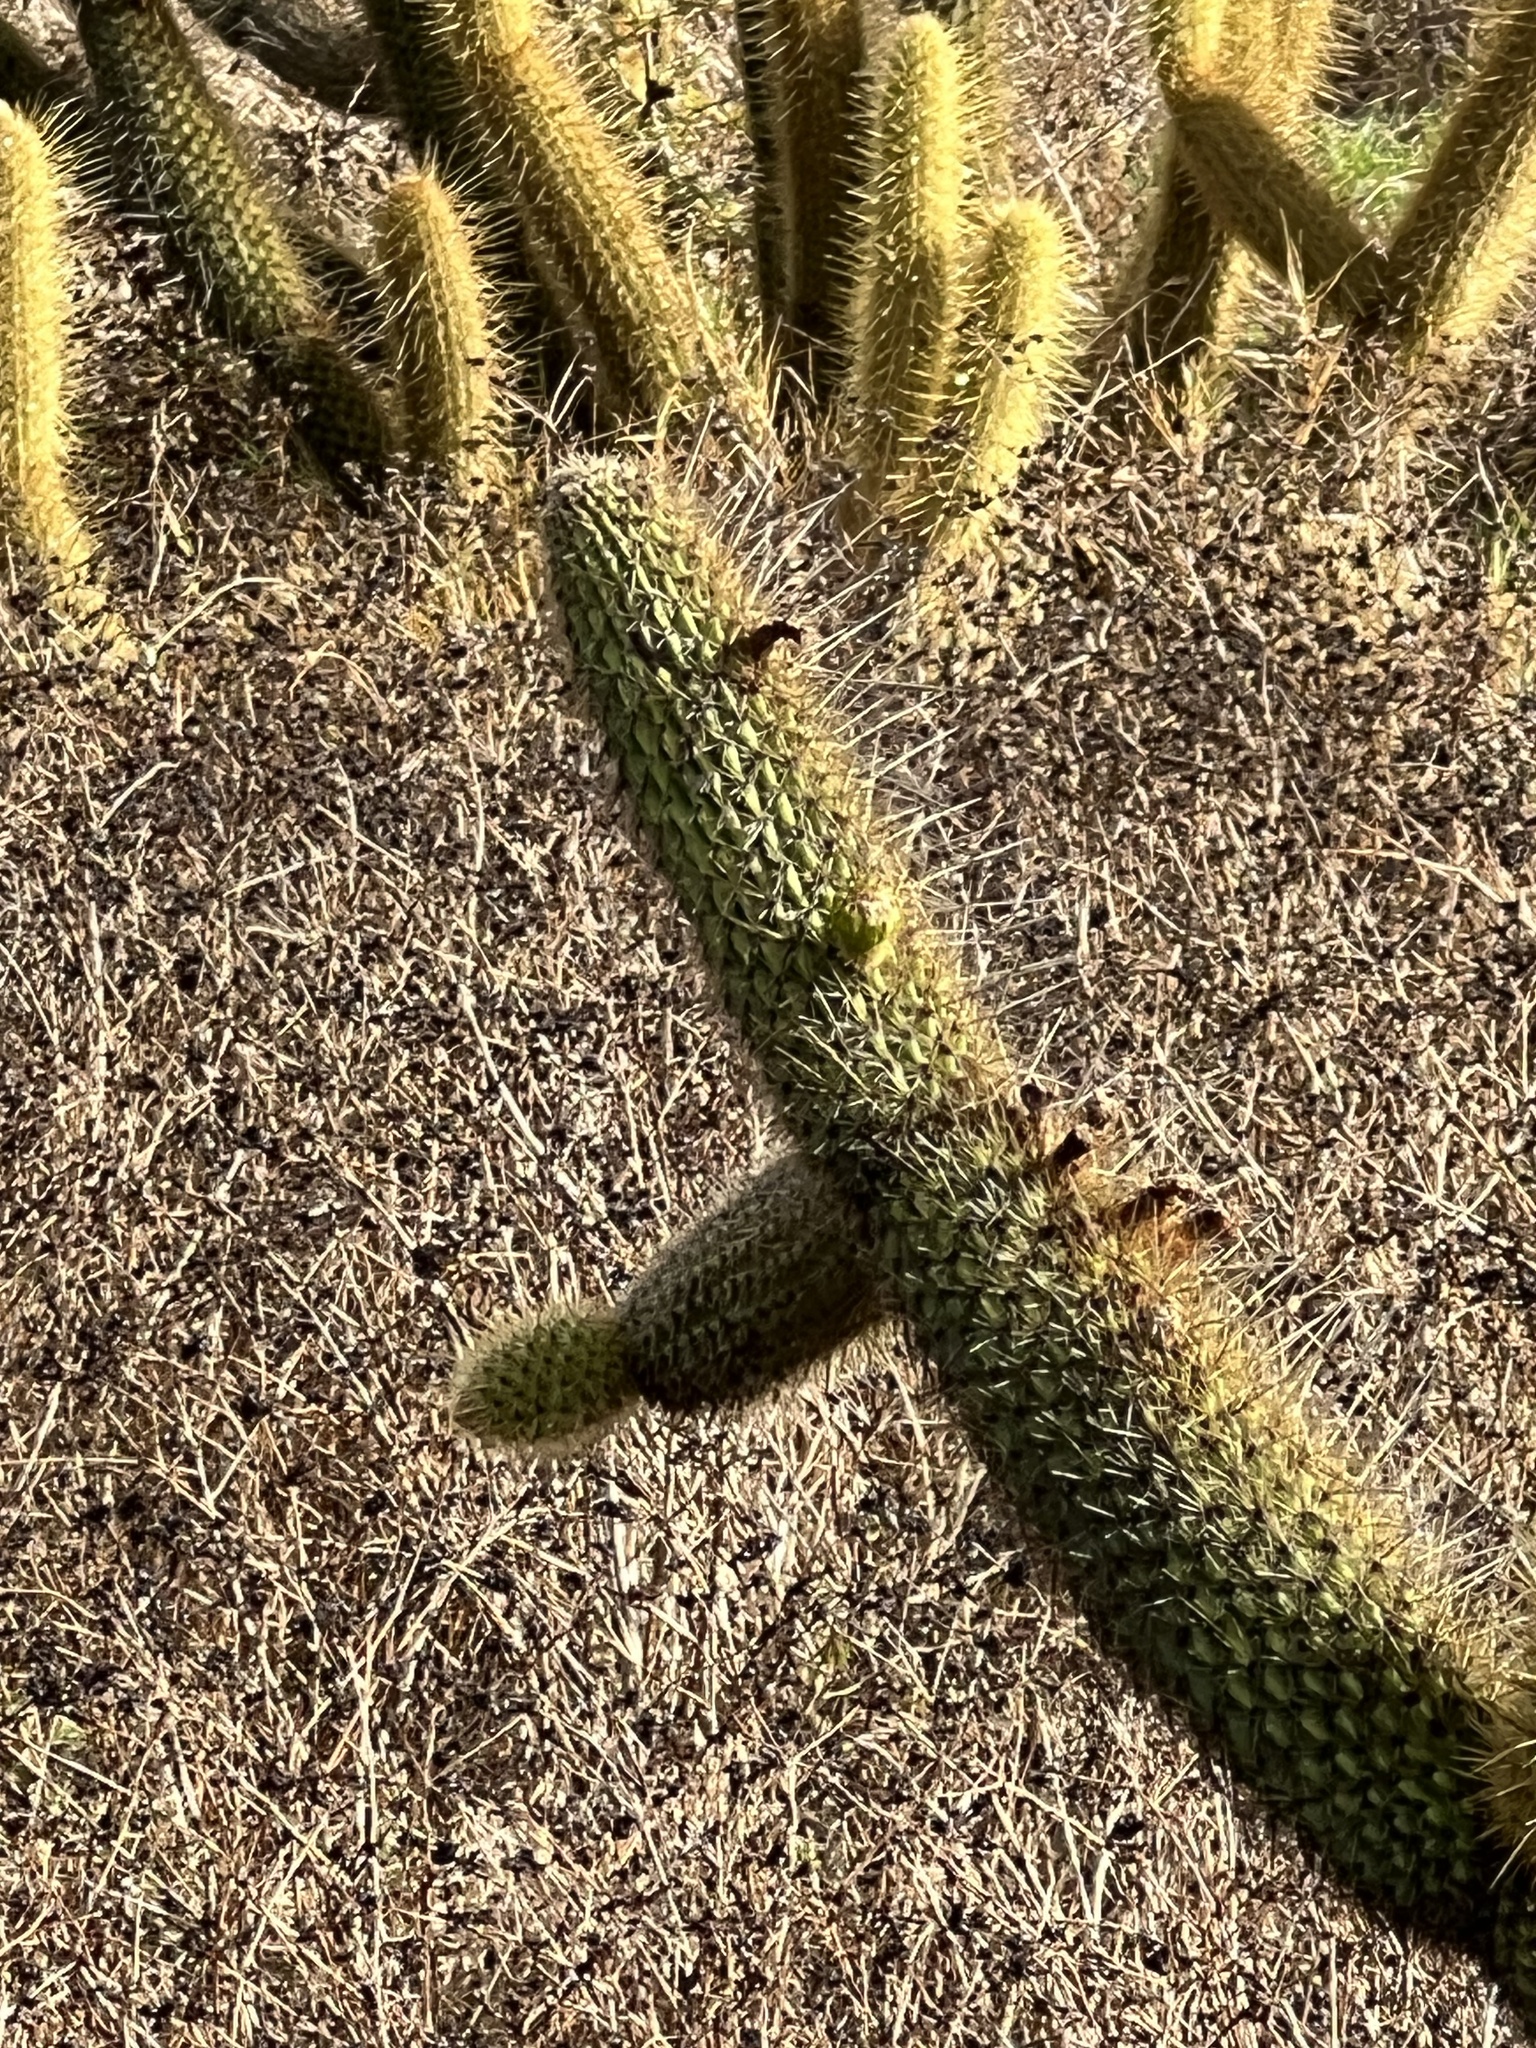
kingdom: Plantae
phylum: Tracheophyta
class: Magnoliopsida
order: Caryophyllales
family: Cactaceae
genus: Bergerocactus
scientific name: Bergerocactus emoryi
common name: Golden snakecactus
